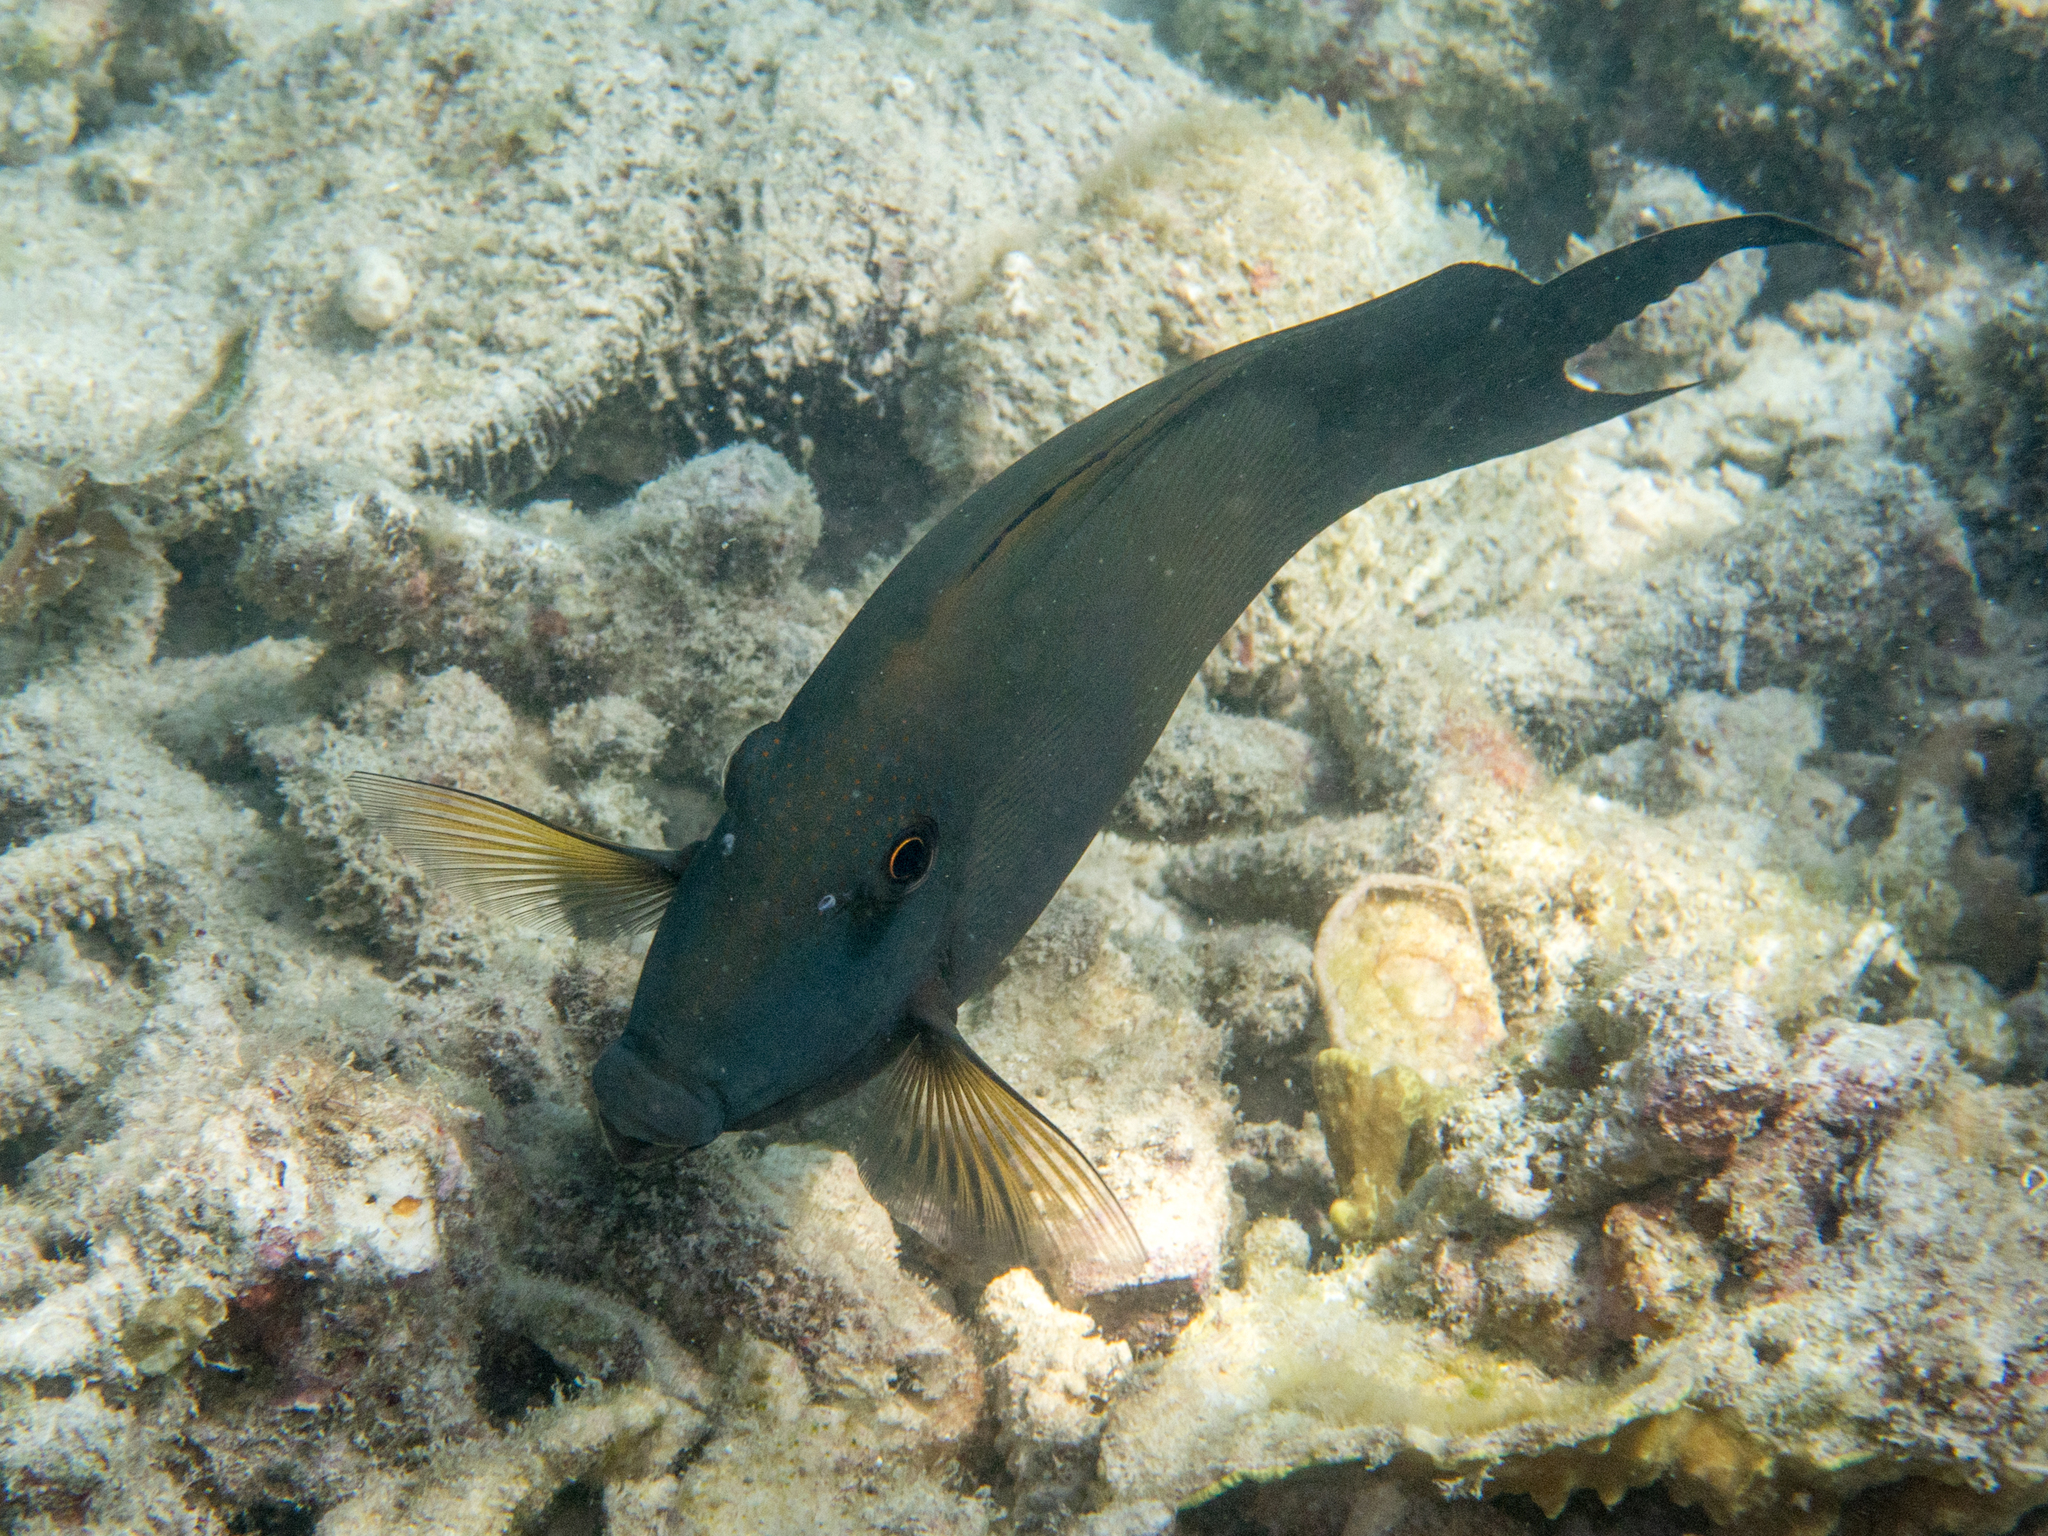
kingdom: Animalia
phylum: Chordata
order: Perciformes
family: Acanthuridae
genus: Ctenochaetus
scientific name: Ctenochaetus striatus
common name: Bristle-toothed surgeonfish
